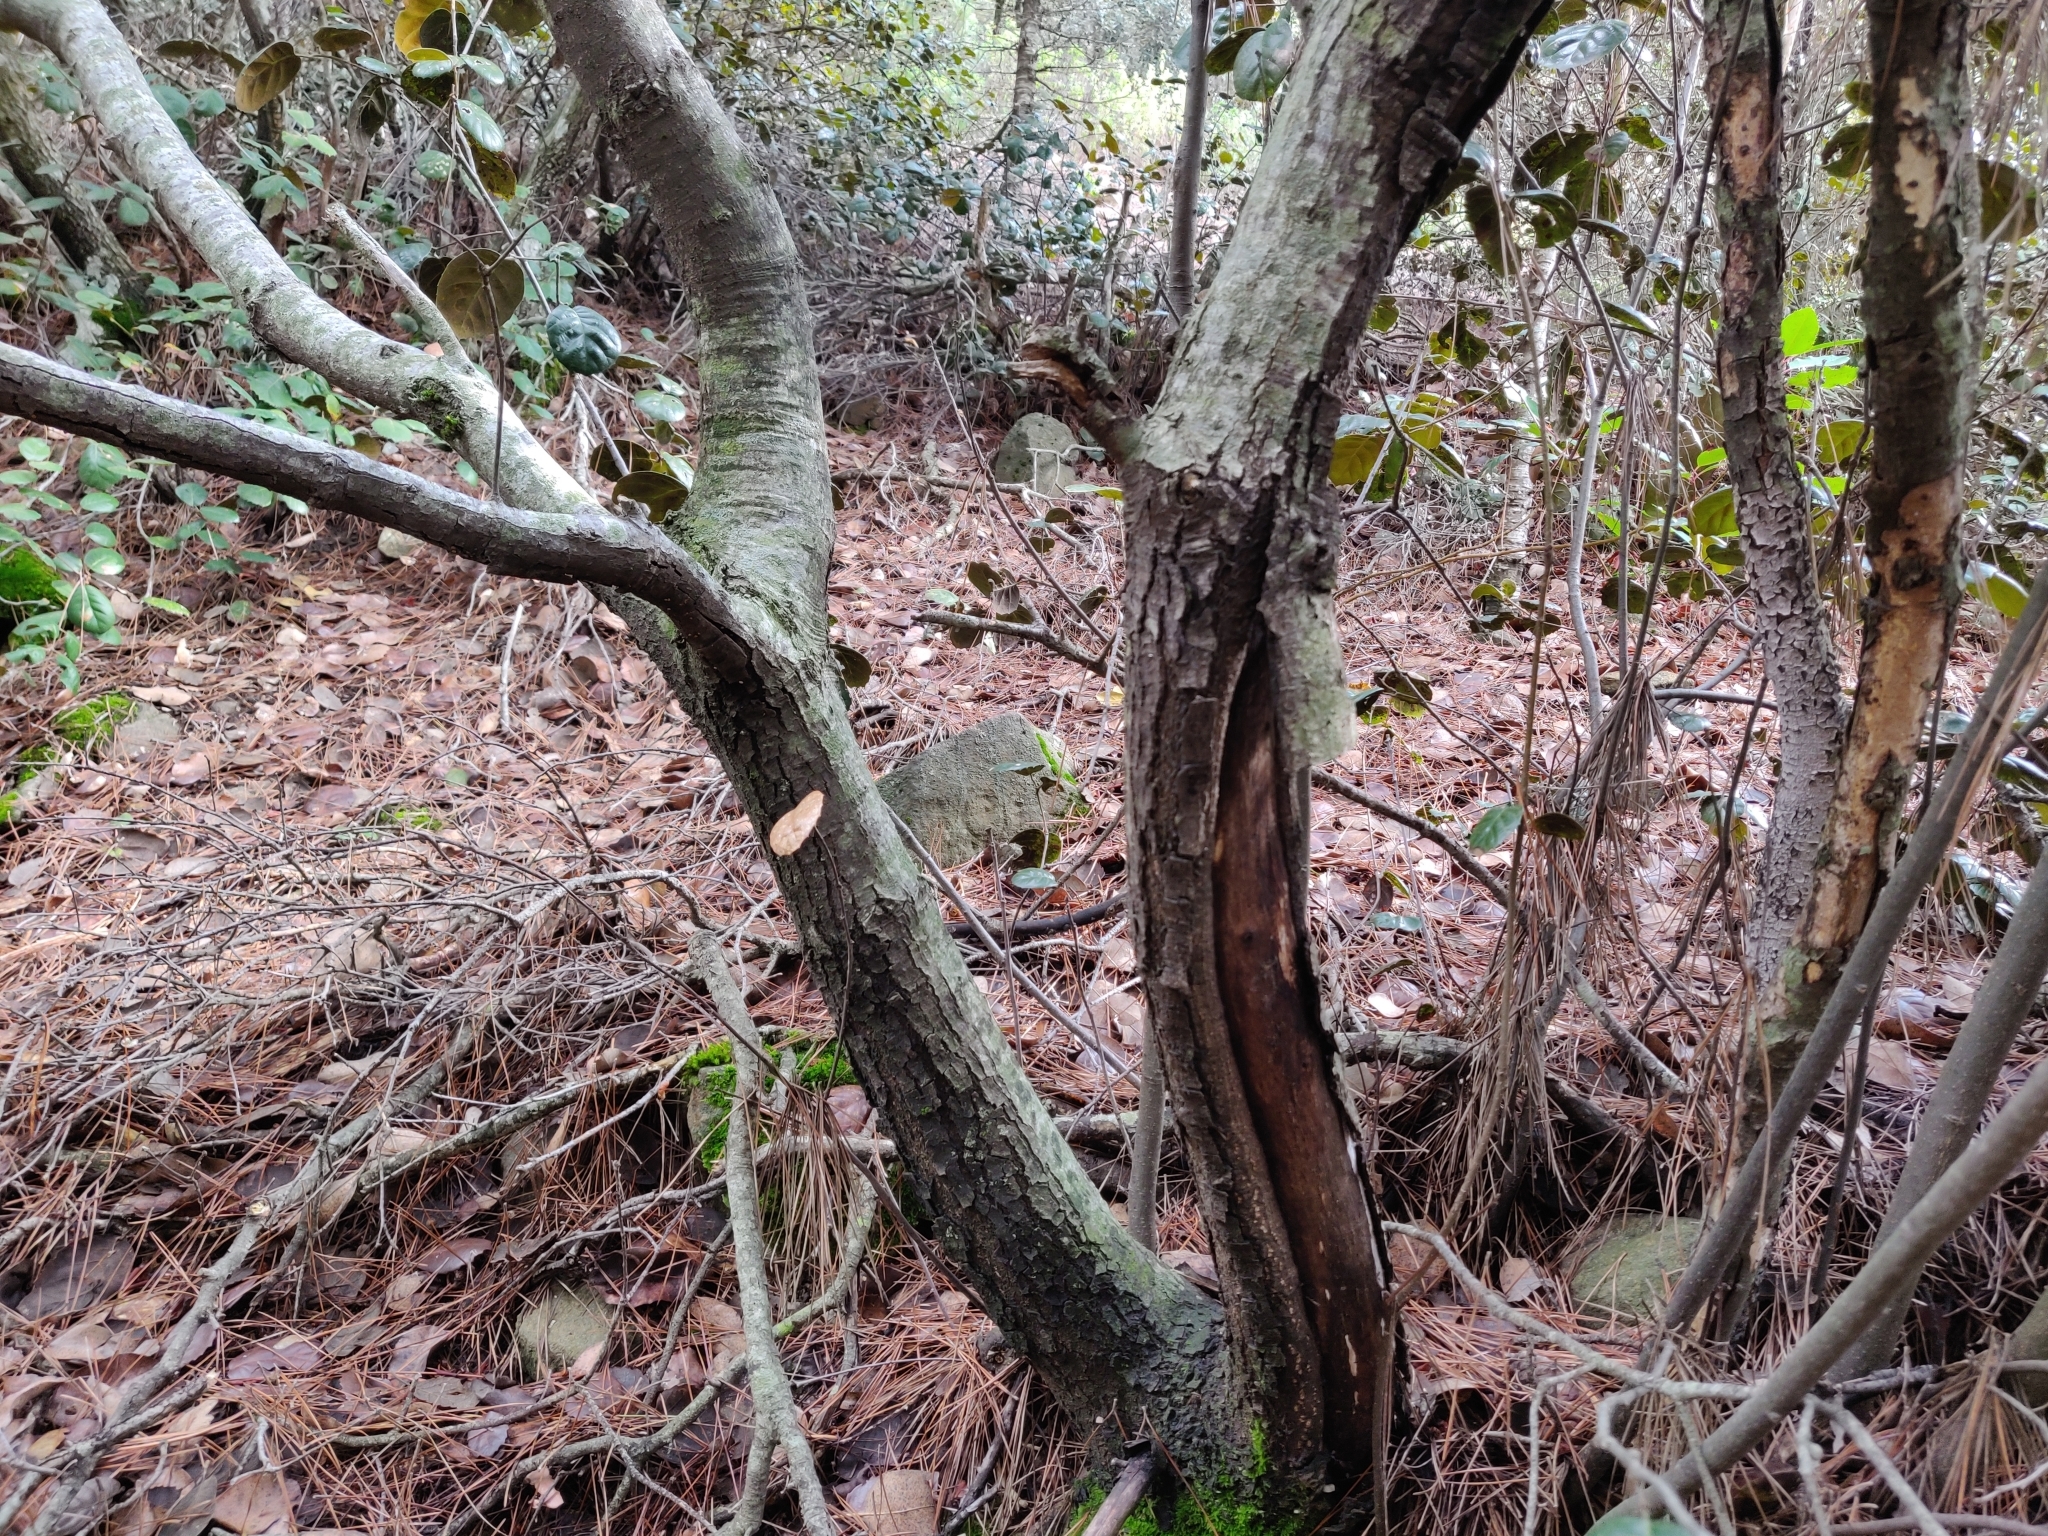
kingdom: Plantae
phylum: Tracheophyta
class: Magnoliopsida
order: Fagales
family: Fagaceae
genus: Quercus
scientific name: Quercus alnifolia
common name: Golden oak
